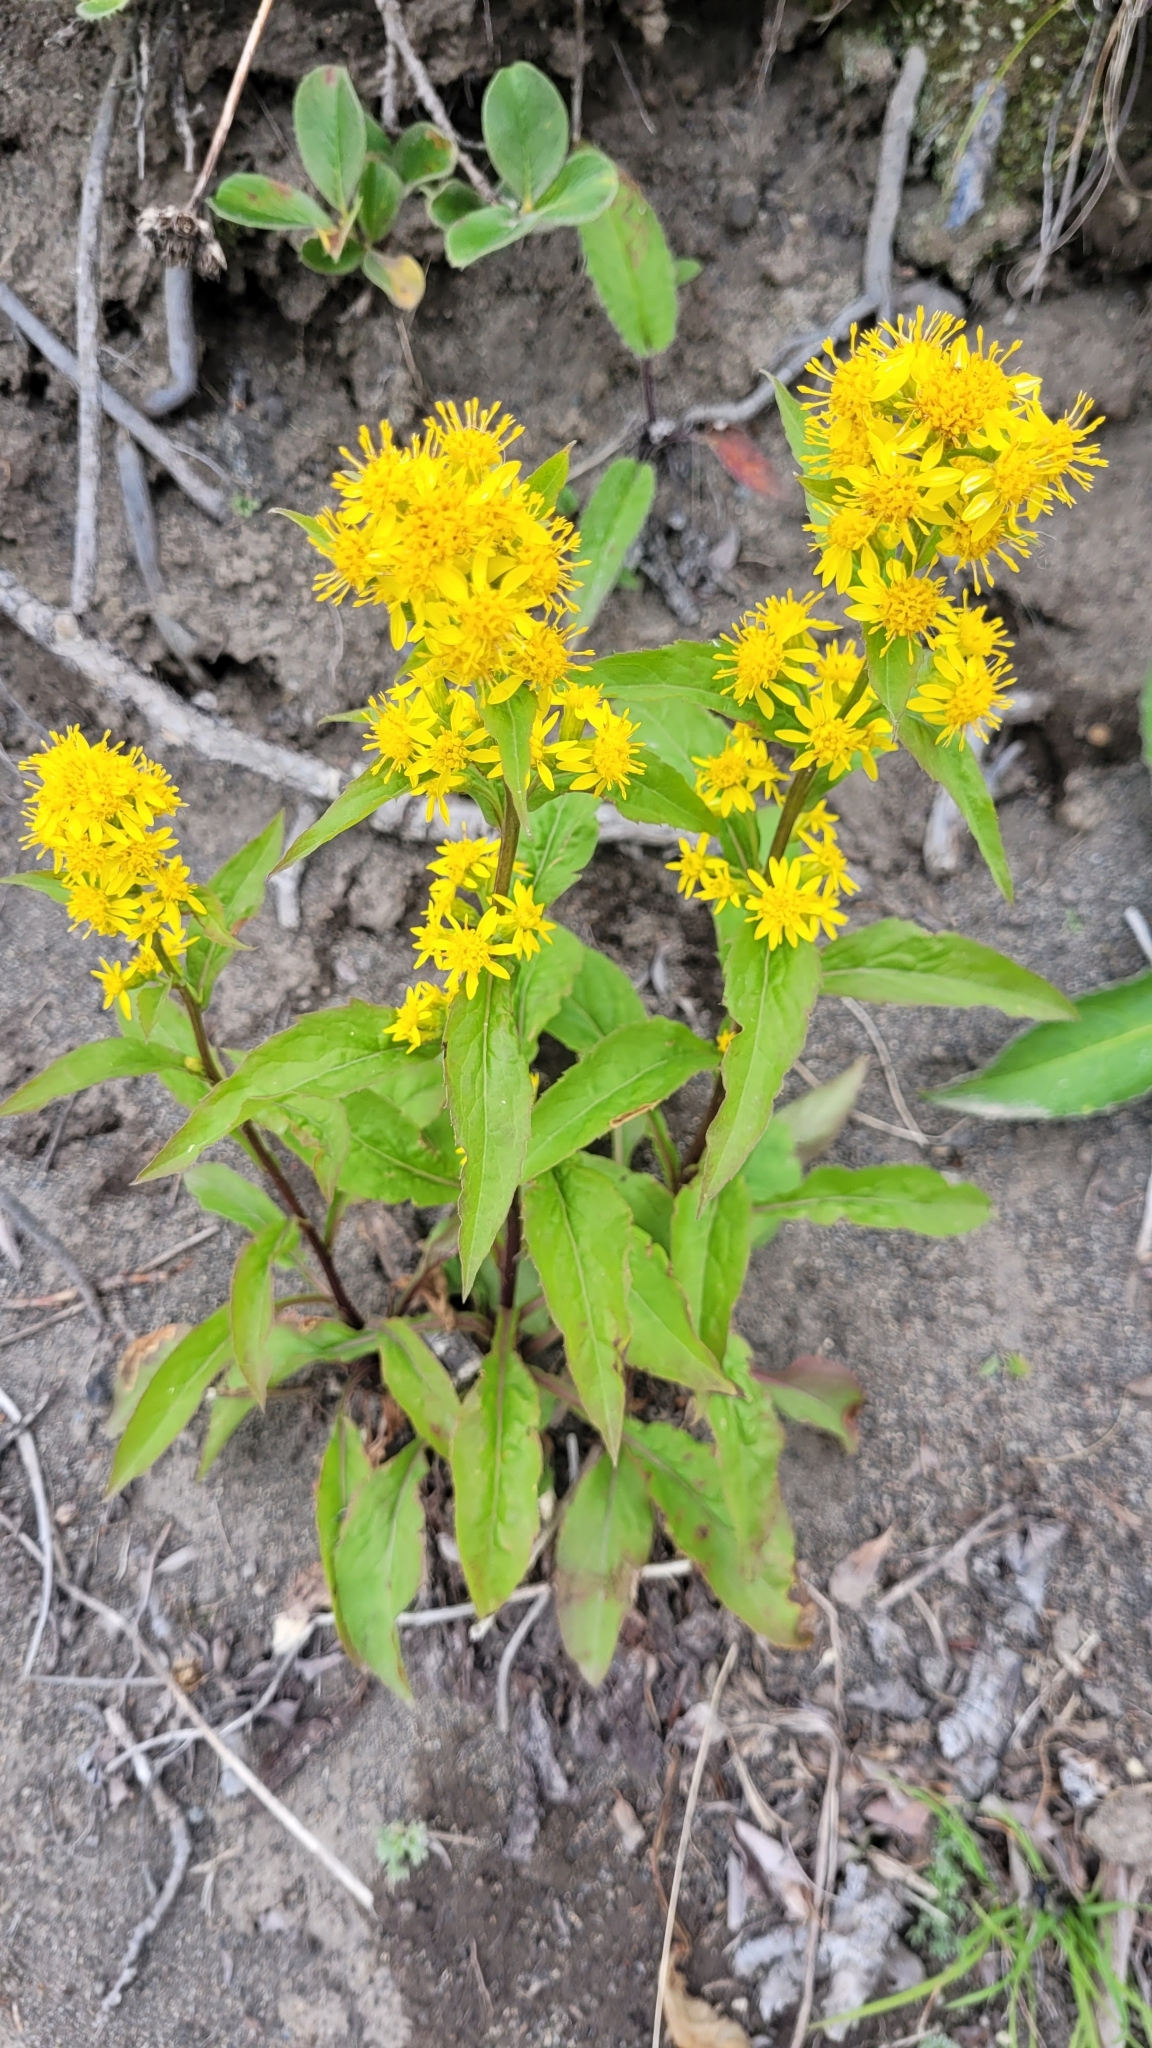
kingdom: Plantae
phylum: Tracheophyta
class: Magnoliopsida
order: Asterales
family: Asteraceae
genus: Solidago
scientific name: Solidago cuprea
